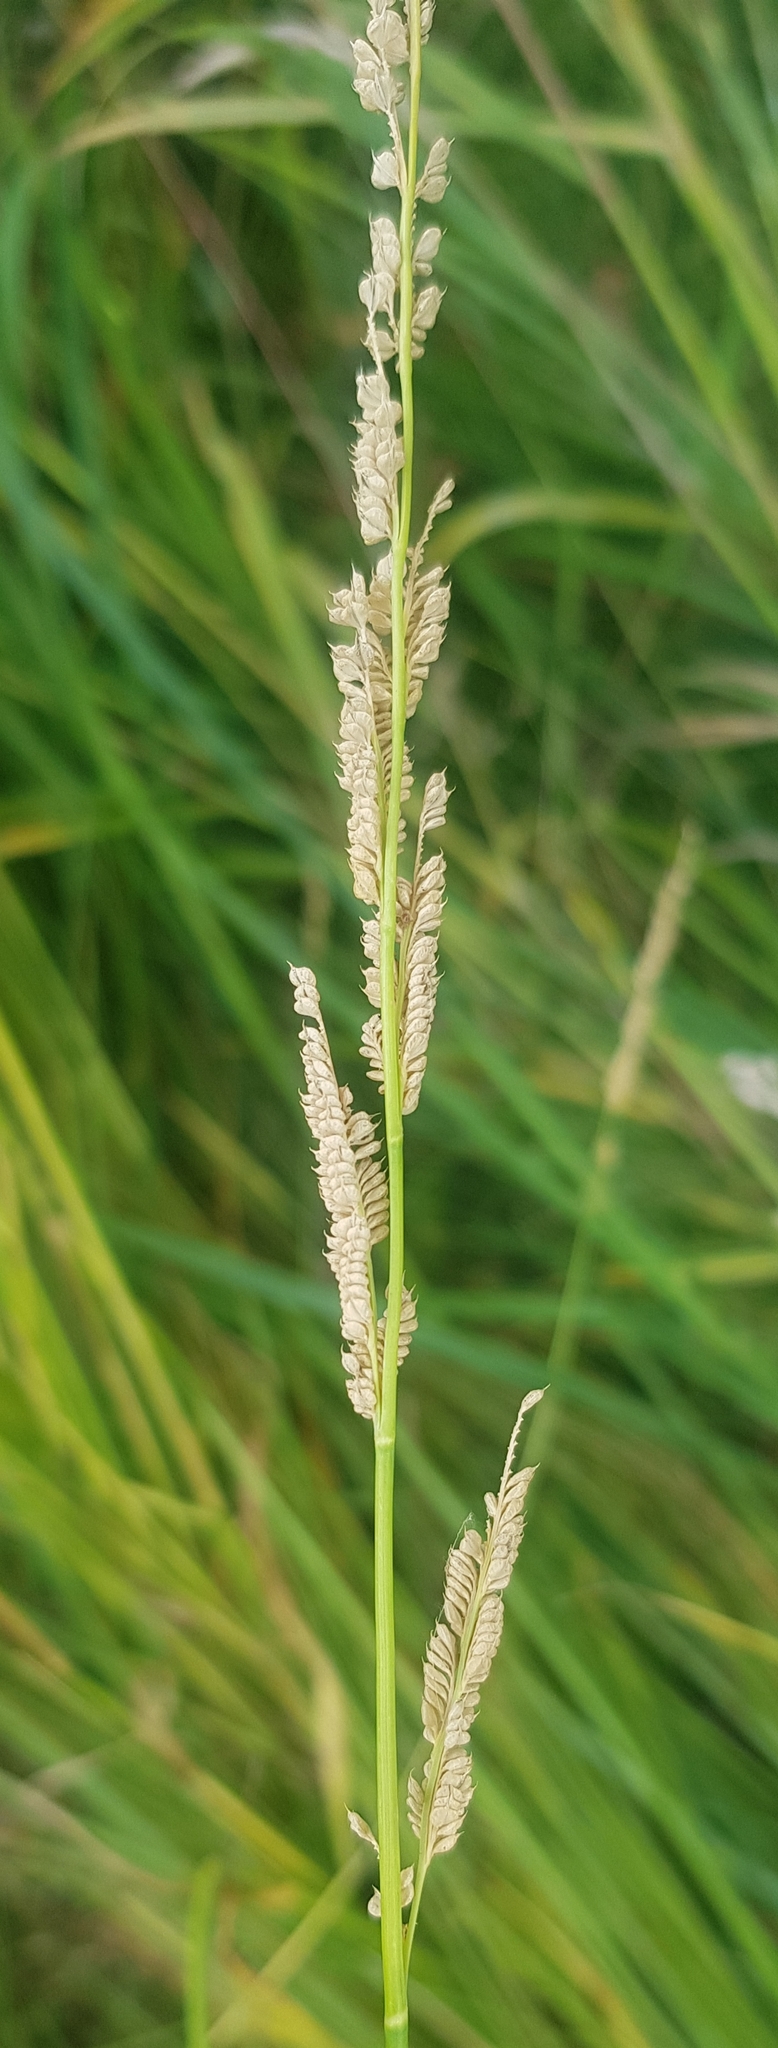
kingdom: Plantae
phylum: Tracheophyta
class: Liliopsida
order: Poales
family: Poaceae
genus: Beckmannia
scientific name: Beckmannia syzigachne
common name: American slough-grass
